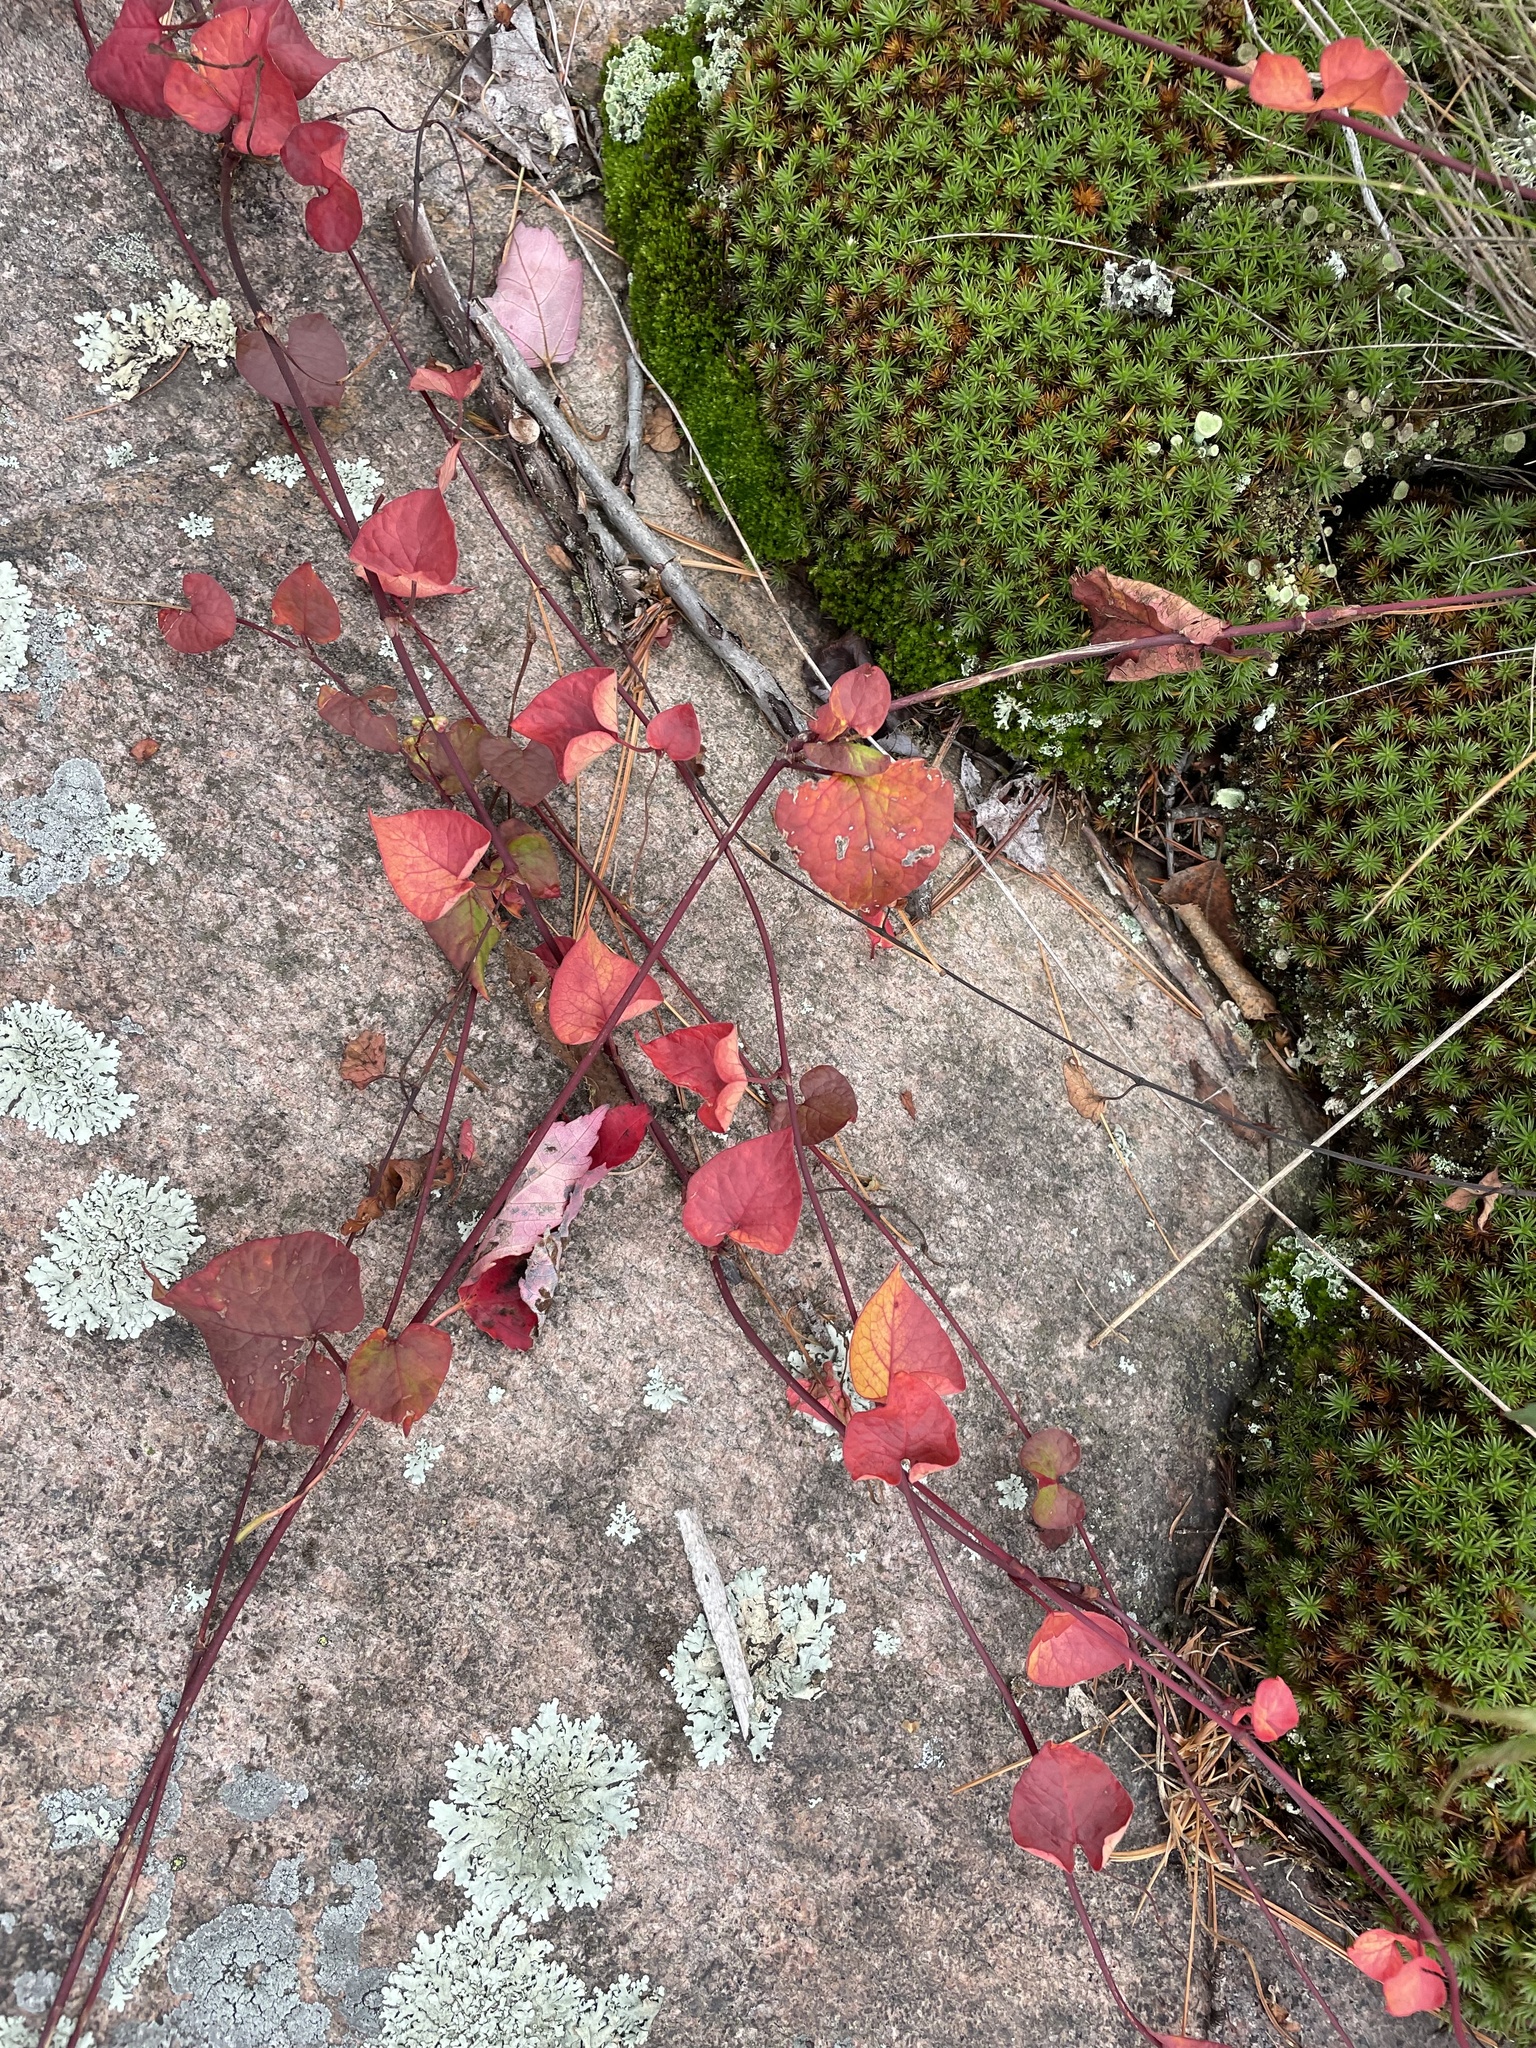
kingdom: Plantae
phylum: Tracheophyta
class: Magnoliopsida
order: Caryophyllales
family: Polygonaceae
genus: Parogonum
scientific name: Parogonum ciliinode
